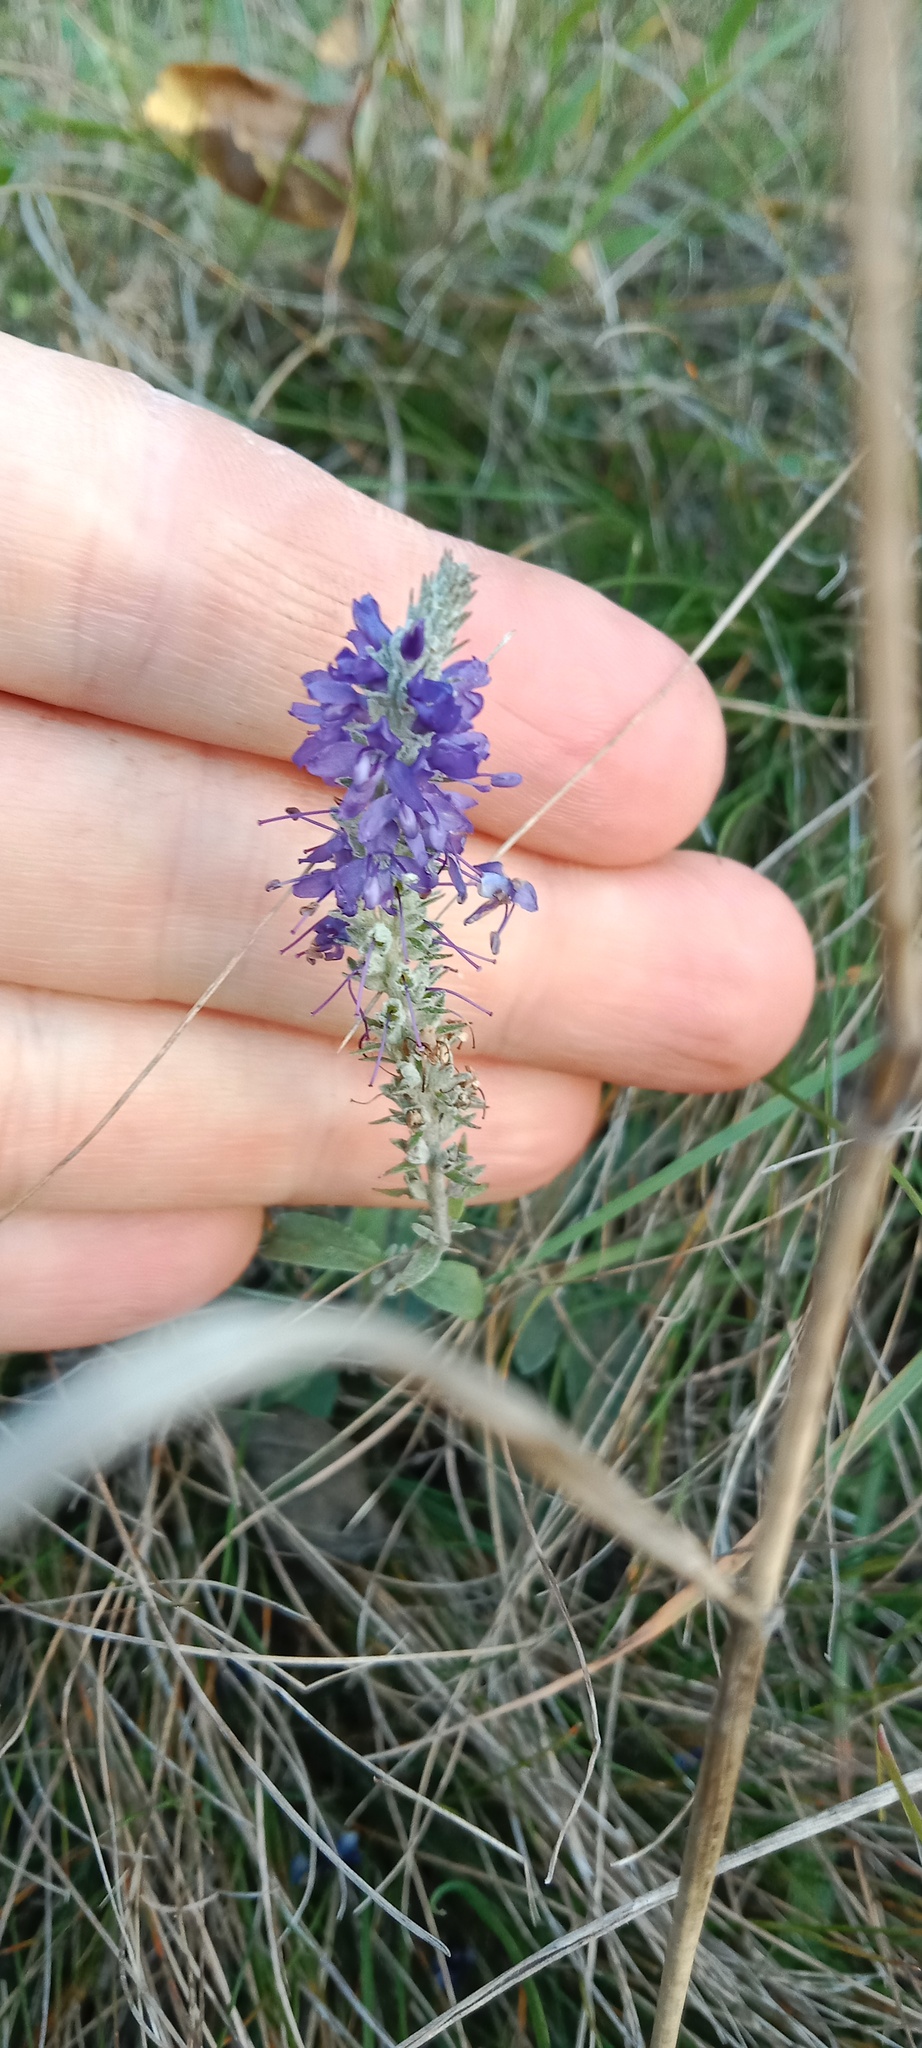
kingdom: Plantae
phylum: Tracheophyta
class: Magnoliopsida
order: Lamiales
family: Plantaginaceae
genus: Veronica
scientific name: Veronica incana
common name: Silver speedwell
